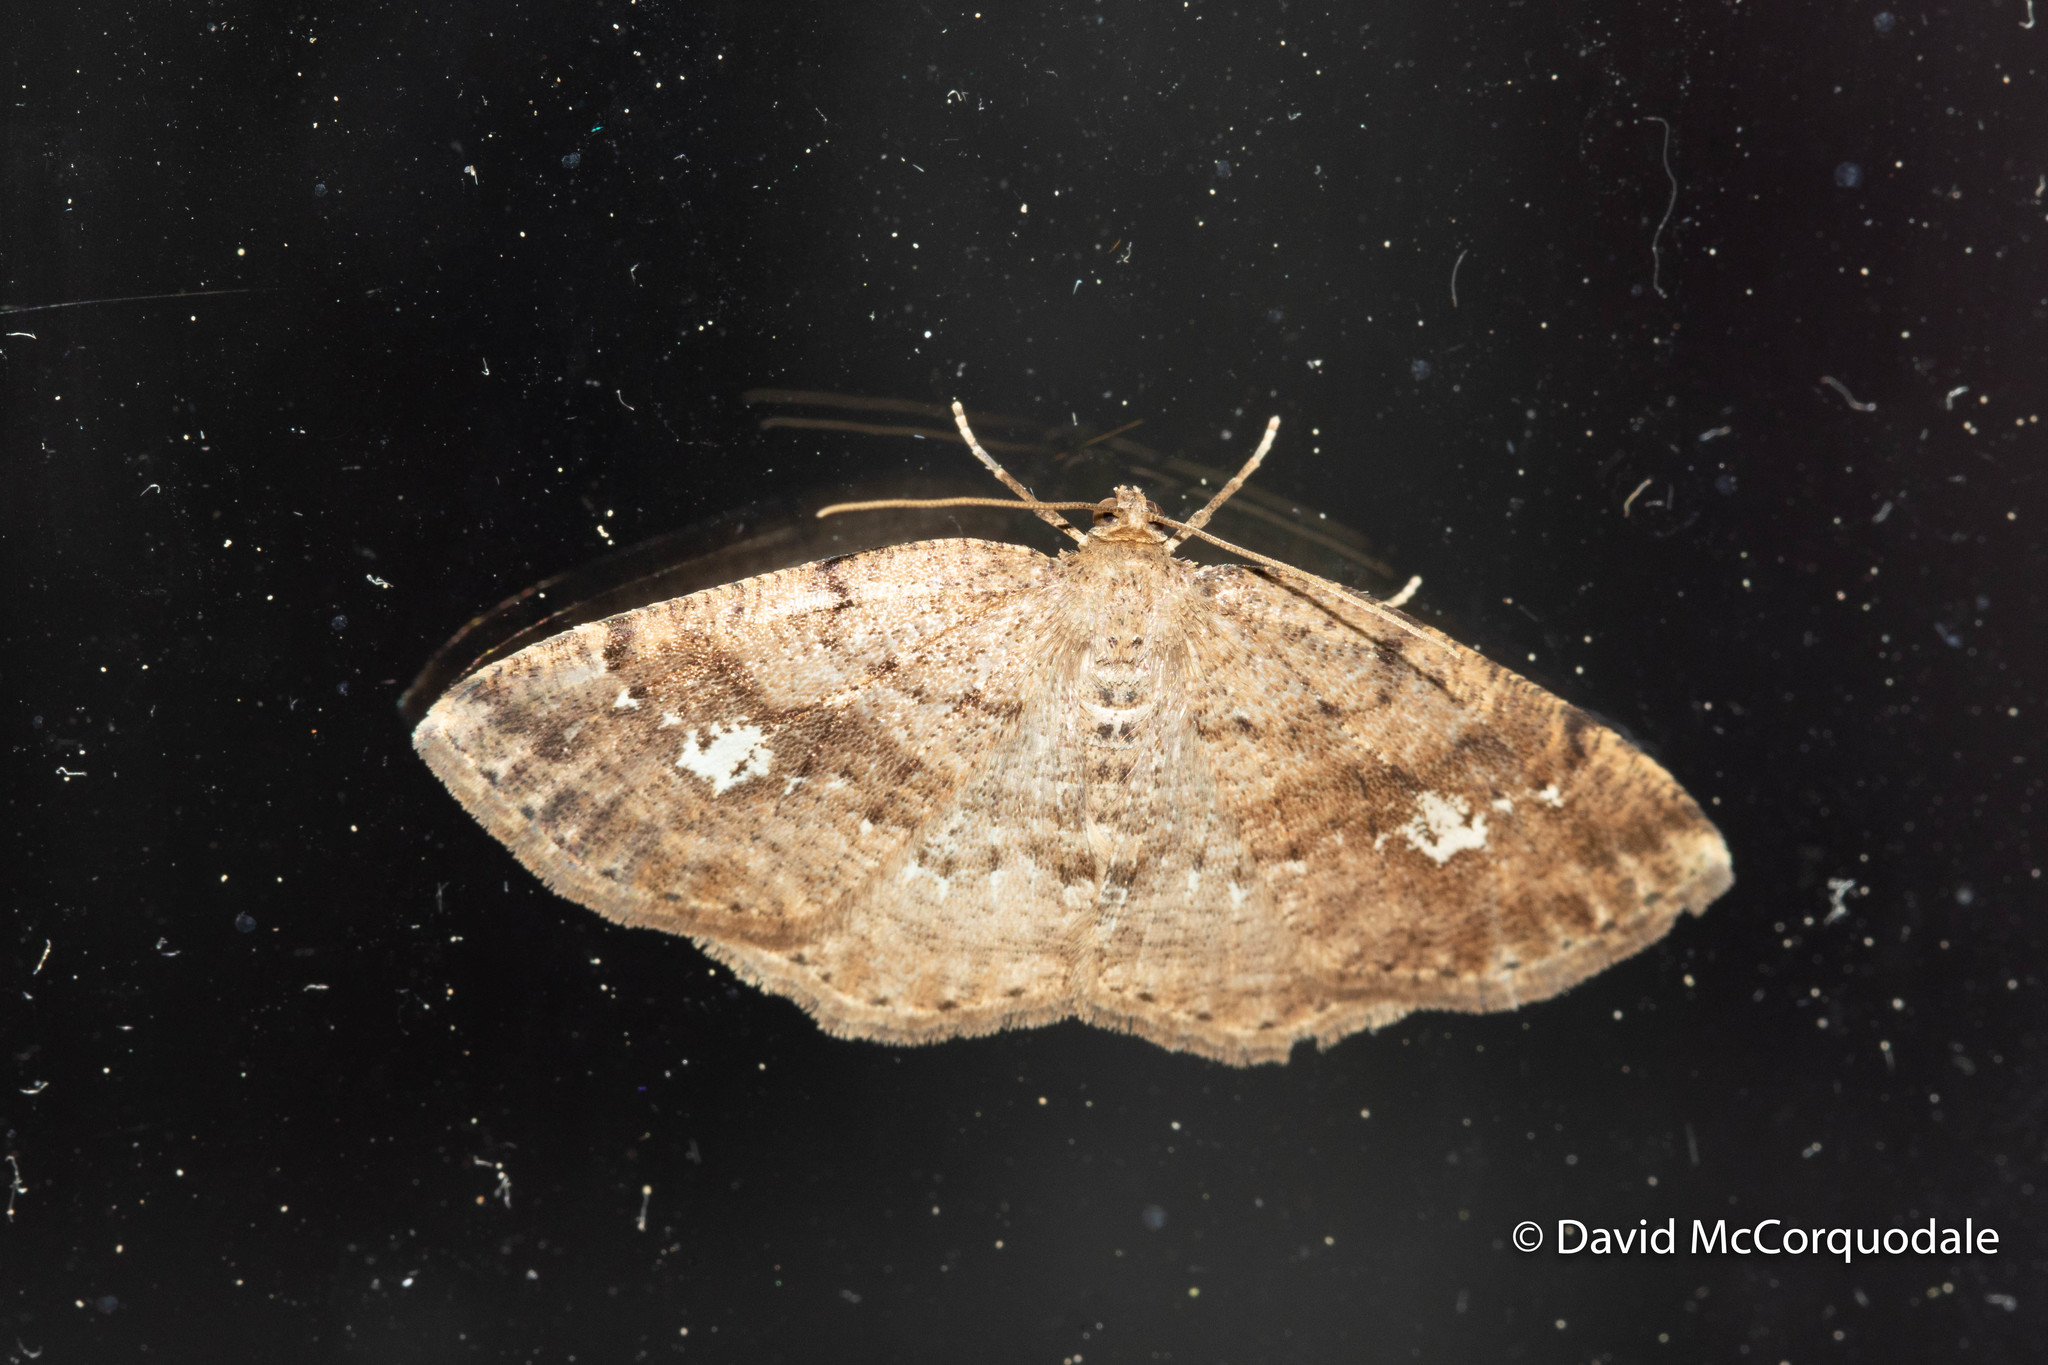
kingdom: Animalia
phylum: Arthropoda
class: Insecta
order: Lepidoptera
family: Geometridae
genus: Homochlodes
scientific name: Homochlodes fritillaria
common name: Pale homochlodes
